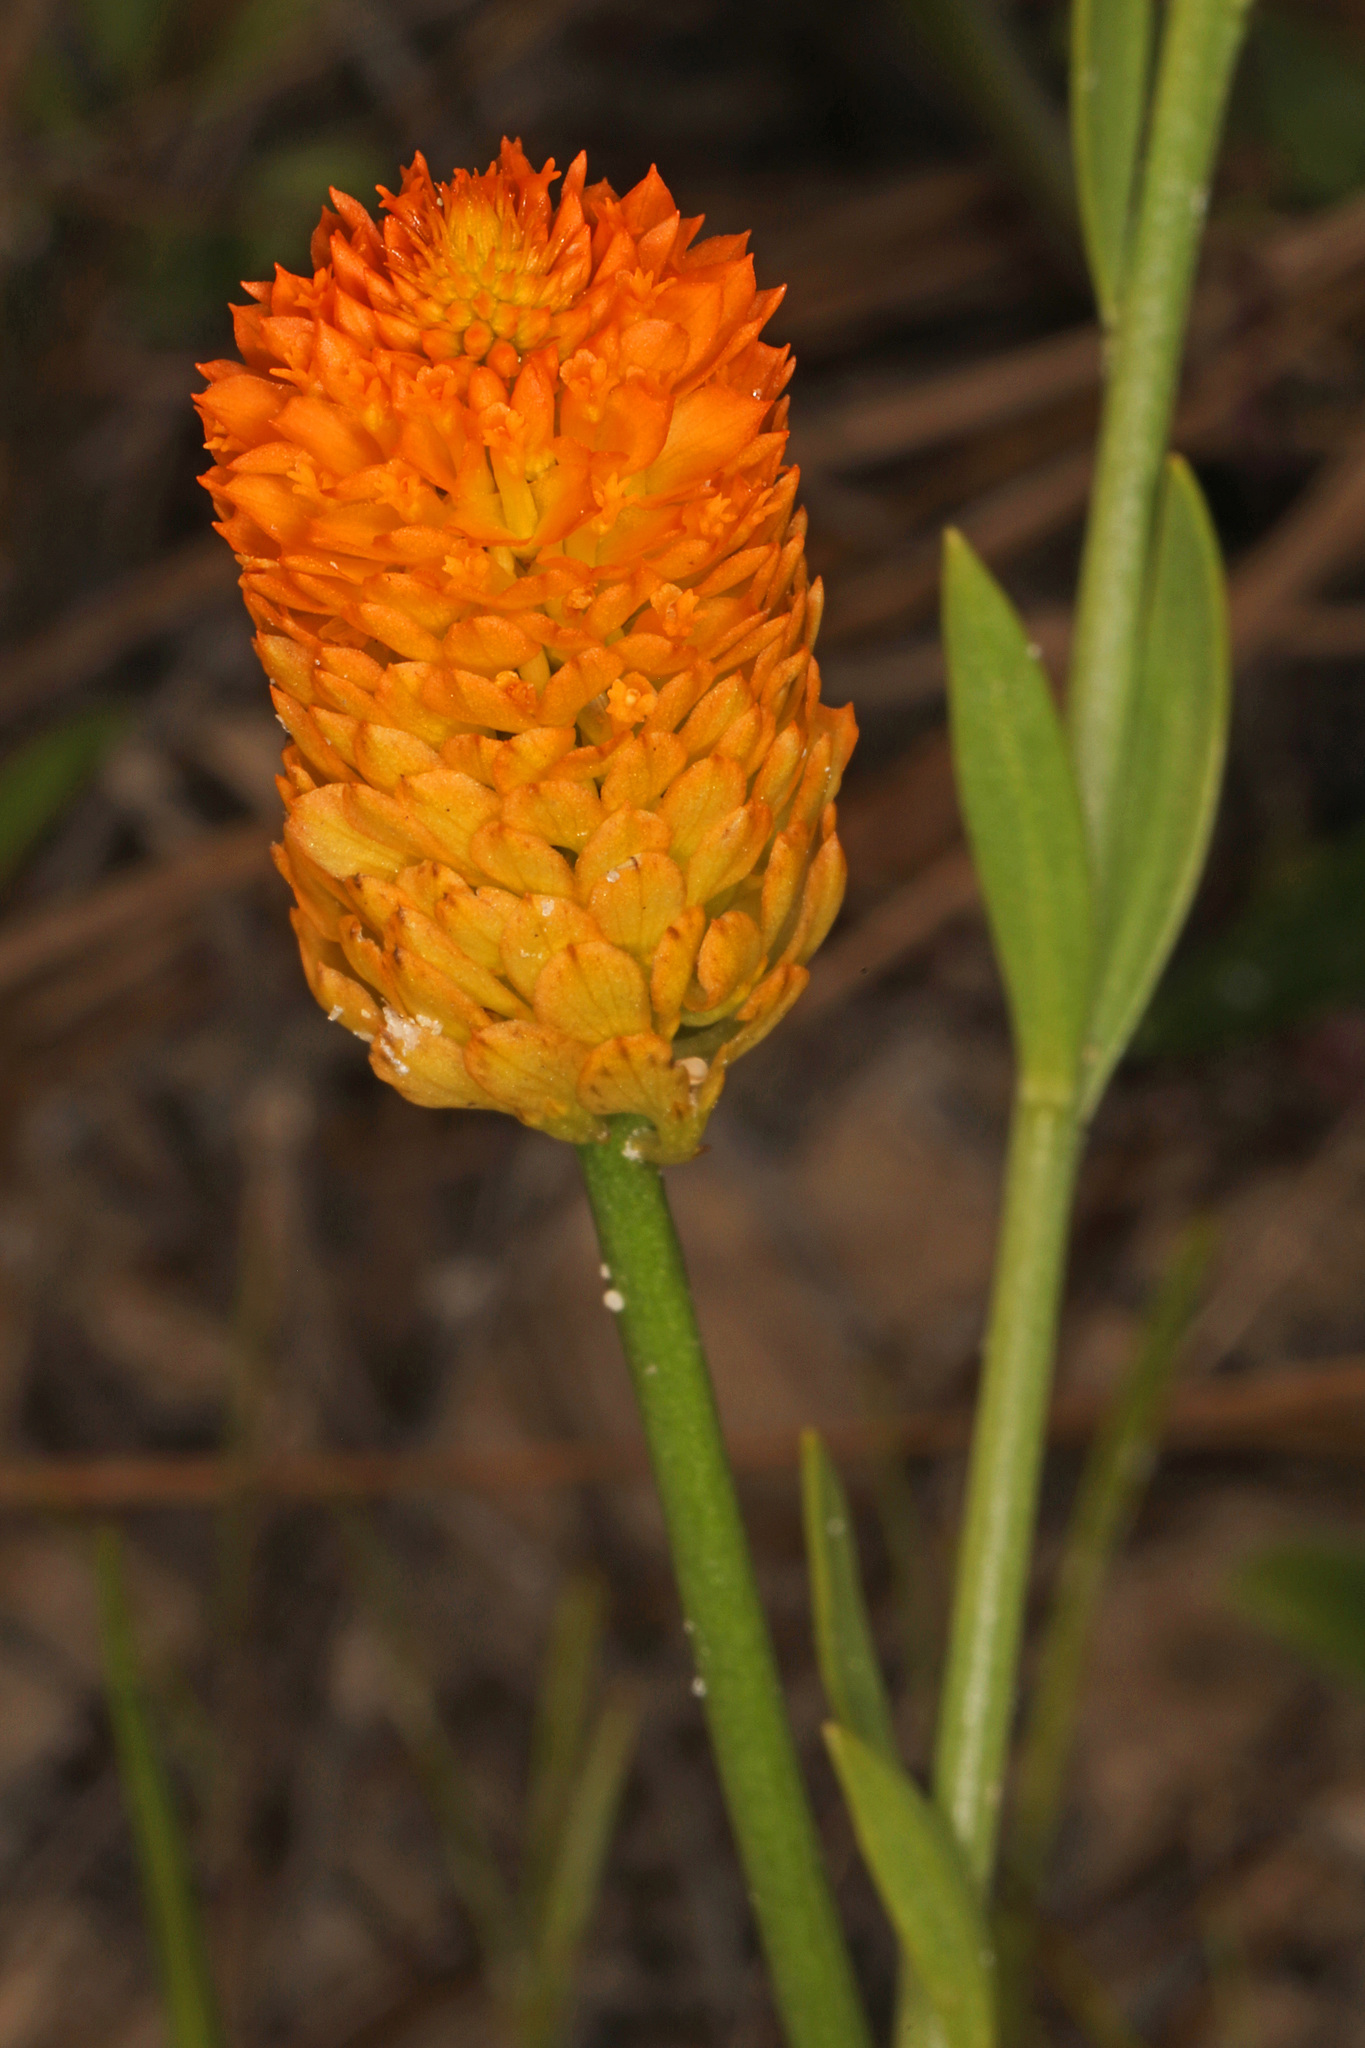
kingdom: Plantae
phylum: Tracheophyta
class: Magnoliopsida
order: Fabales
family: Polygalaceae
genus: Polygala
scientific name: Polygala lutea
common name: Orange milkwort
